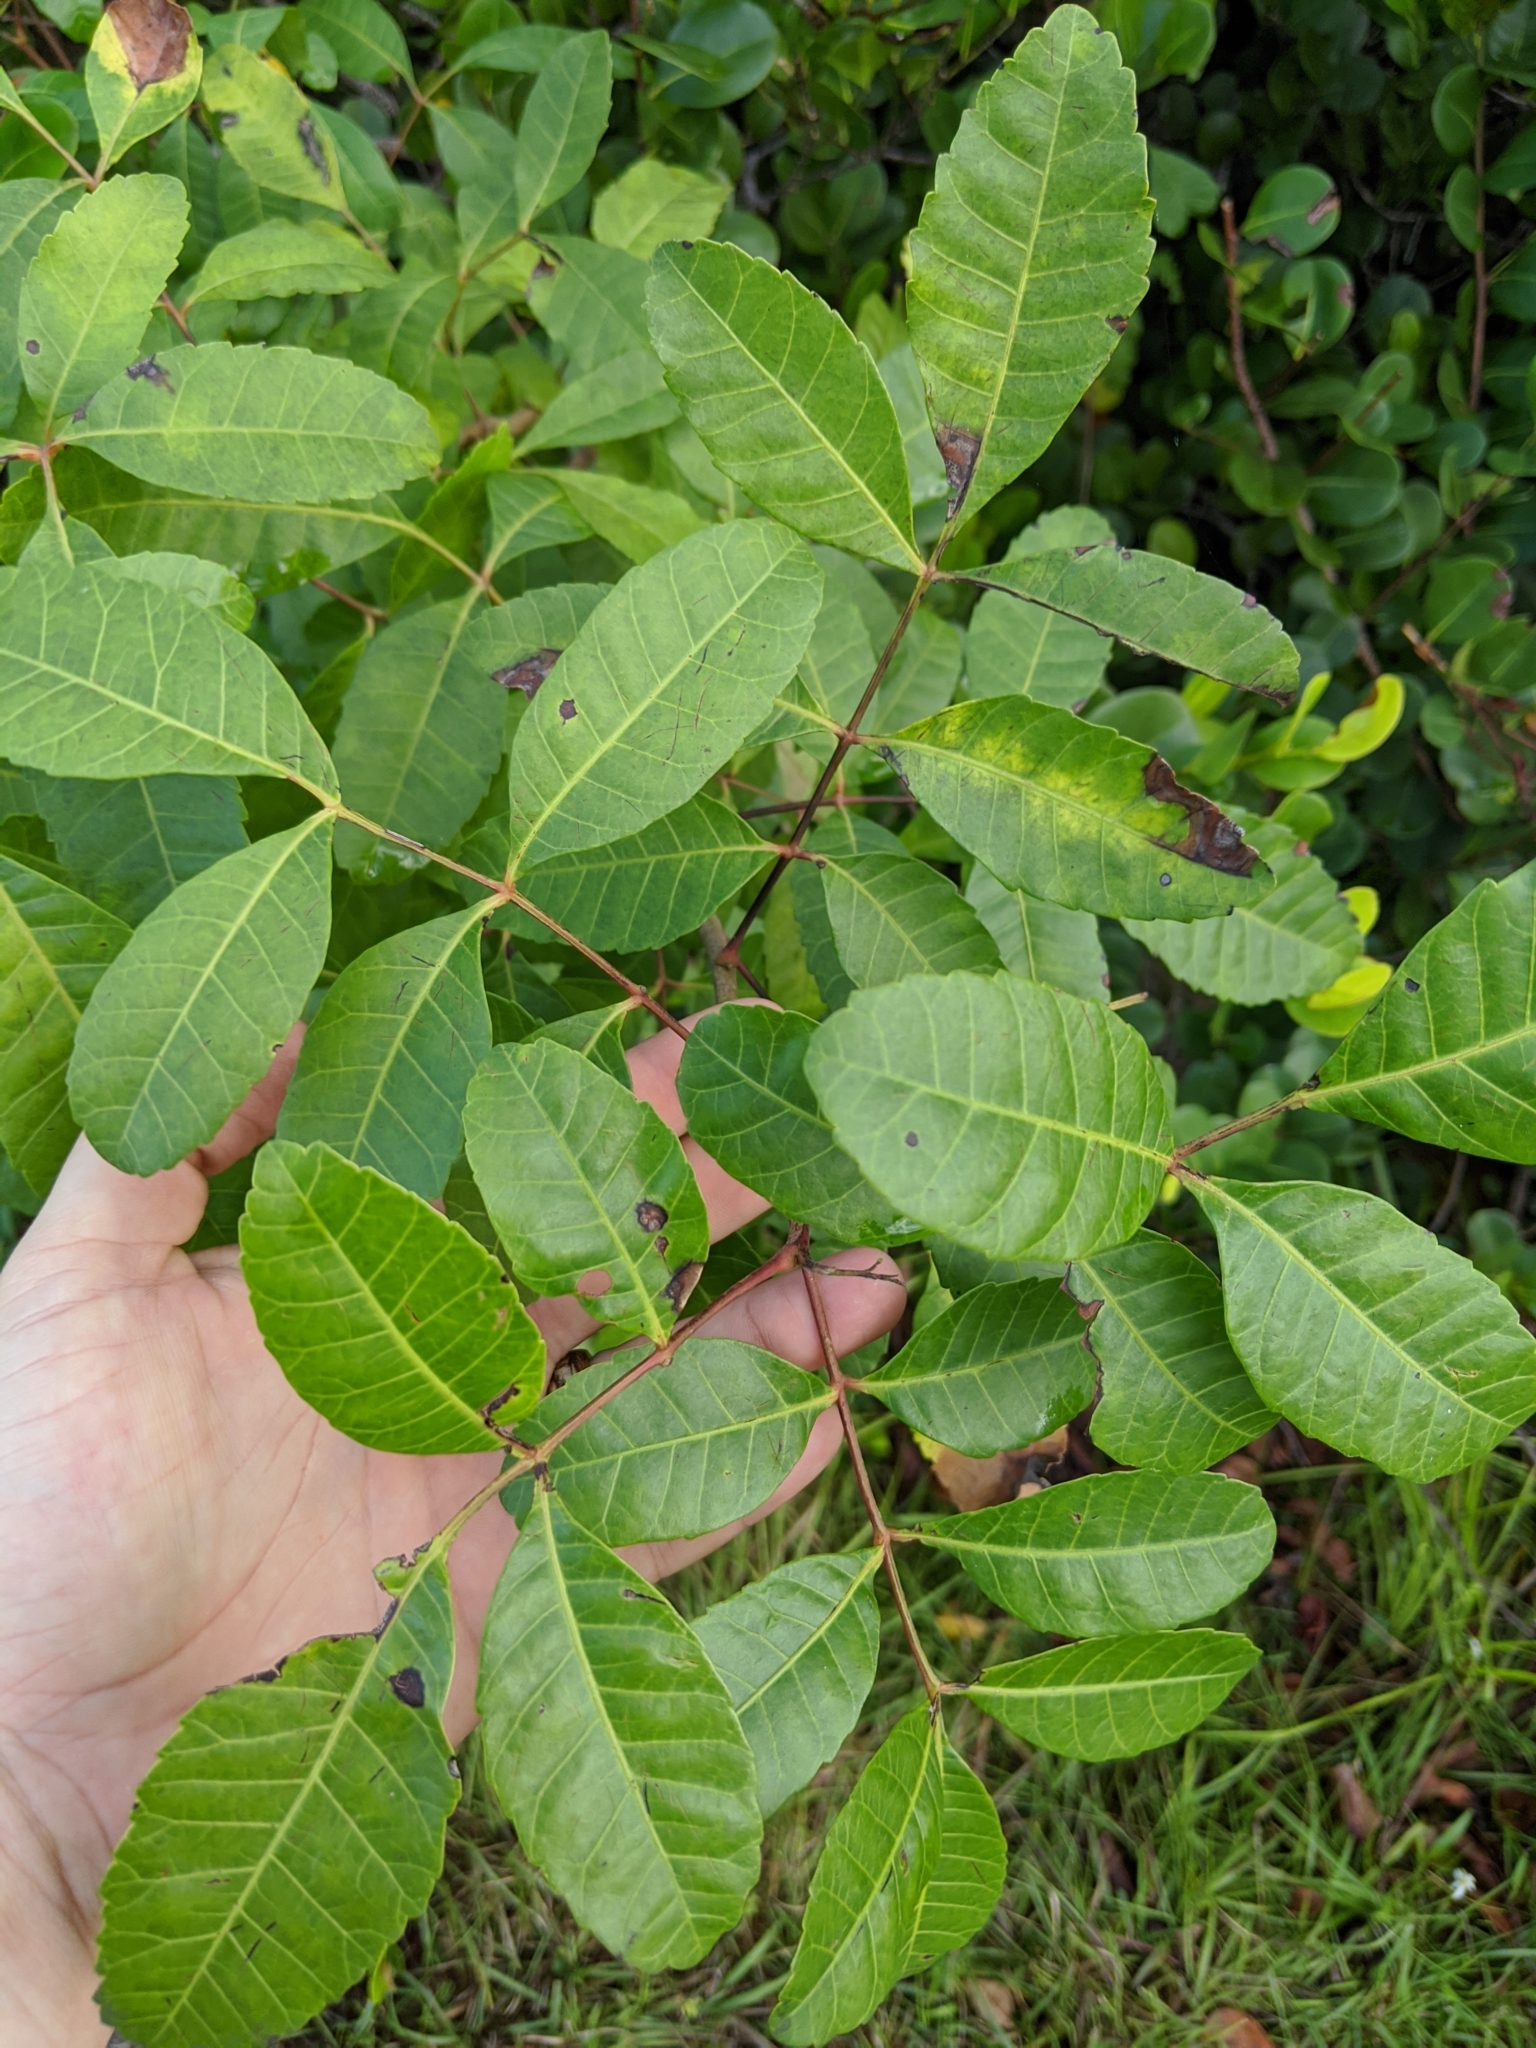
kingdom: Plantae
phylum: Tracheophyta
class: Magnoliopsida
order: Sapindales
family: Anacardiaceae
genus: Schinus
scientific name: Schinus terebinthifolia
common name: Brazilian peppertree
